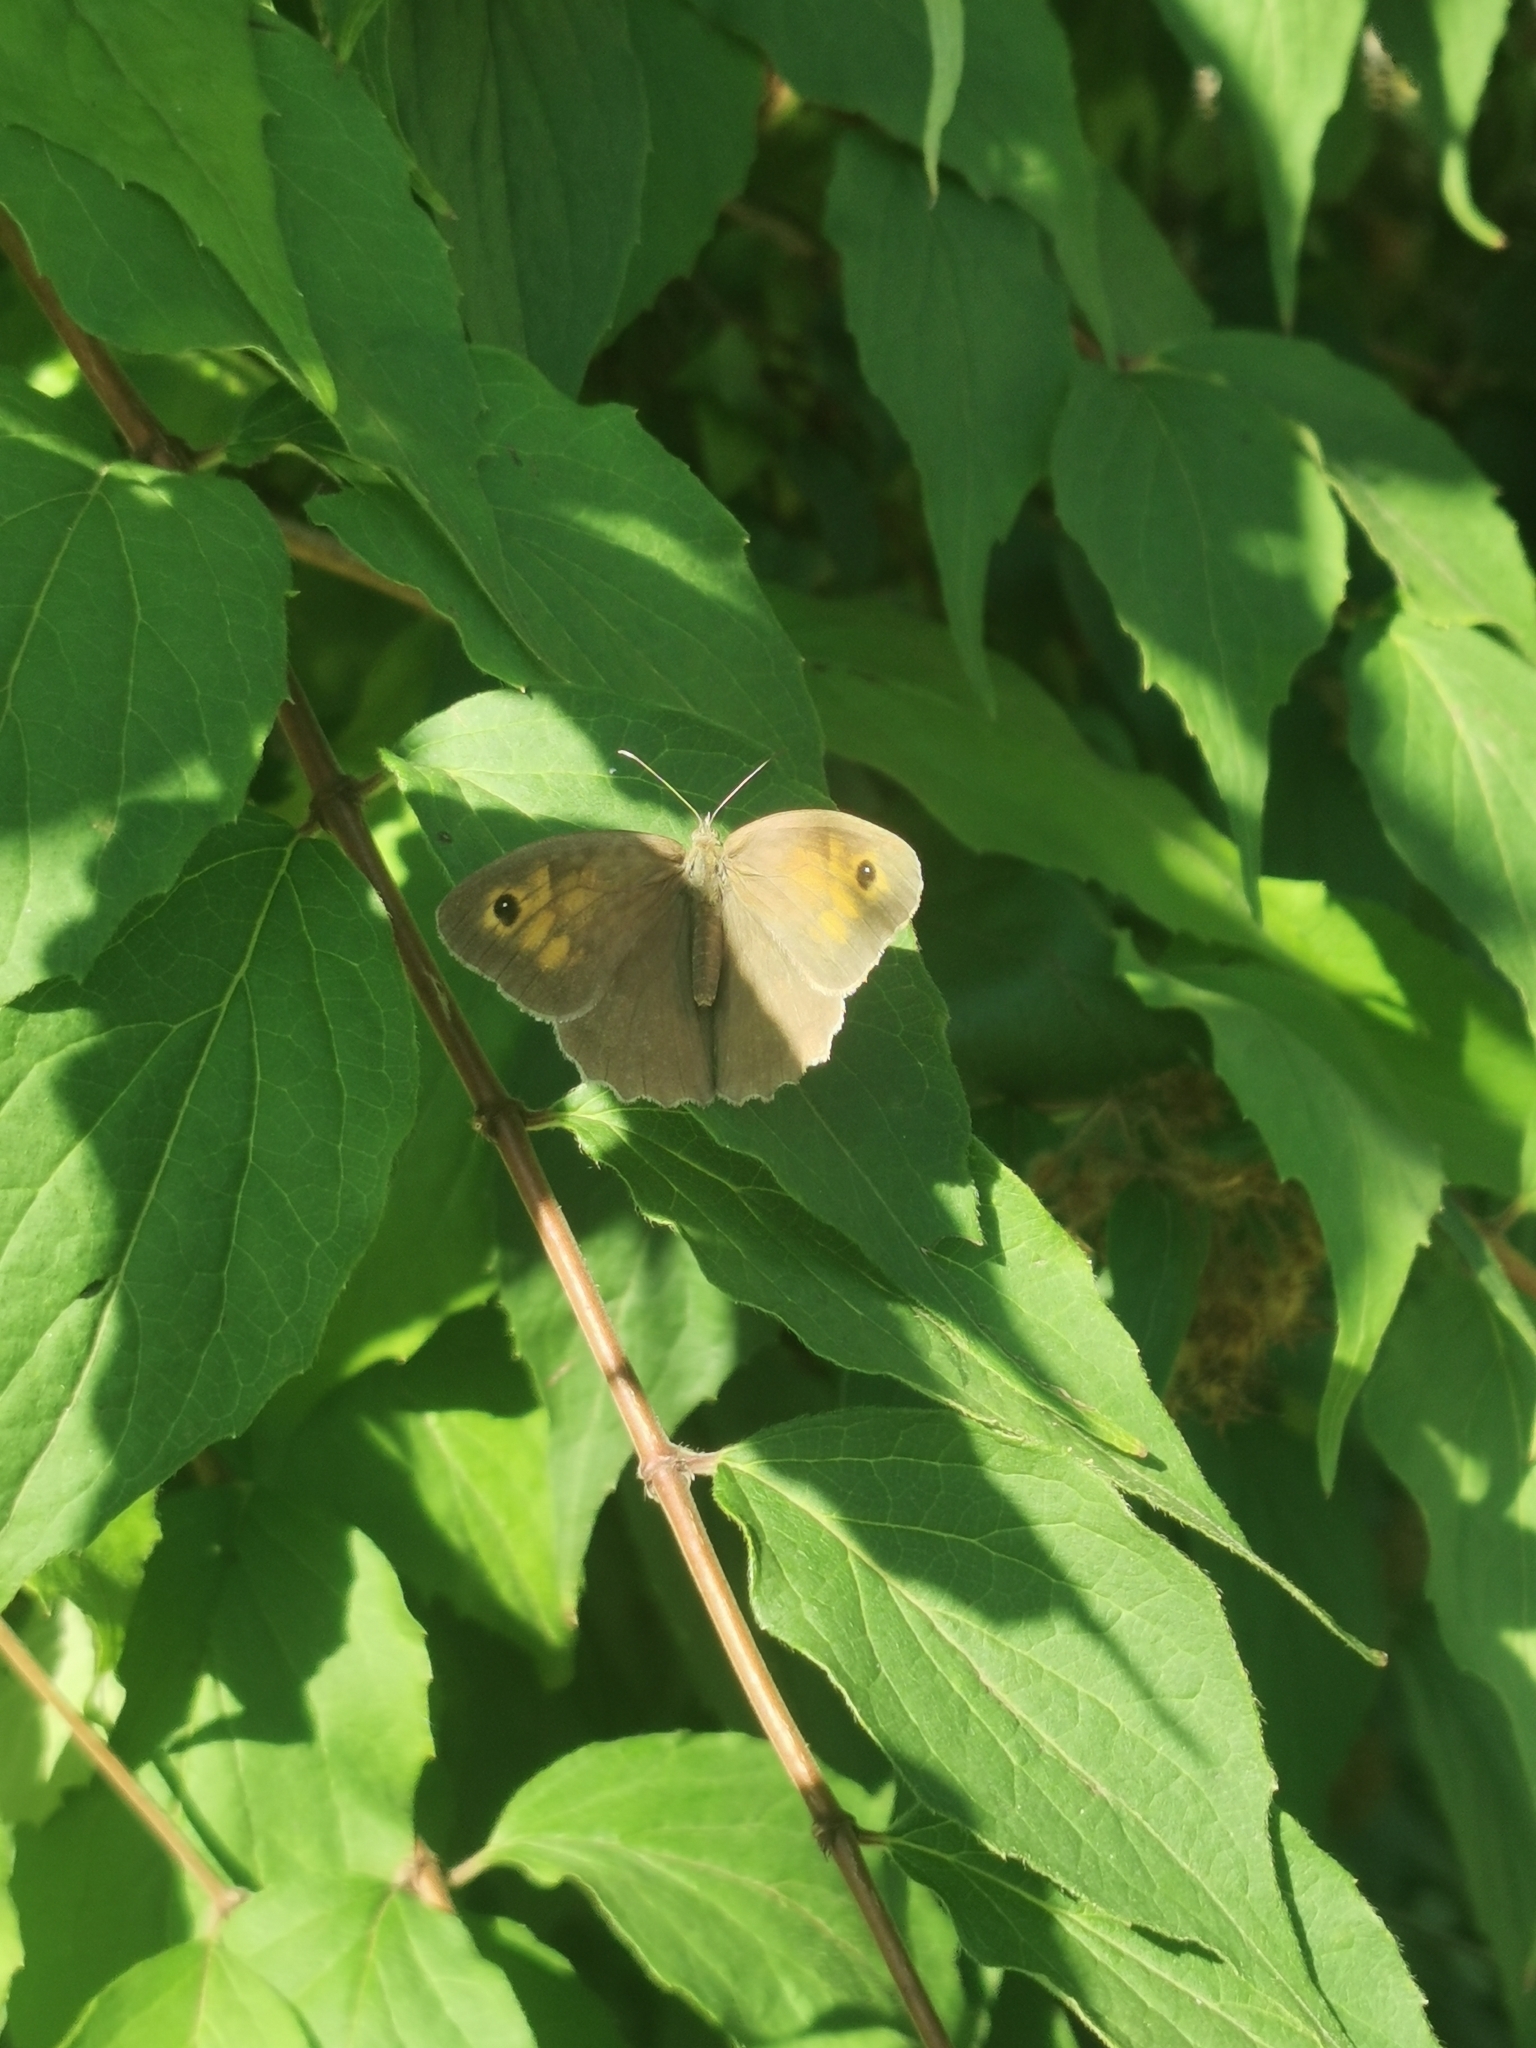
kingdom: Animalia
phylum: Arthropoda
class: Insecta
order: Lepidoptera
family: Nymphalidae
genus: Maniola
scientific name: Maniola jurtina
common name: Meadow brown
